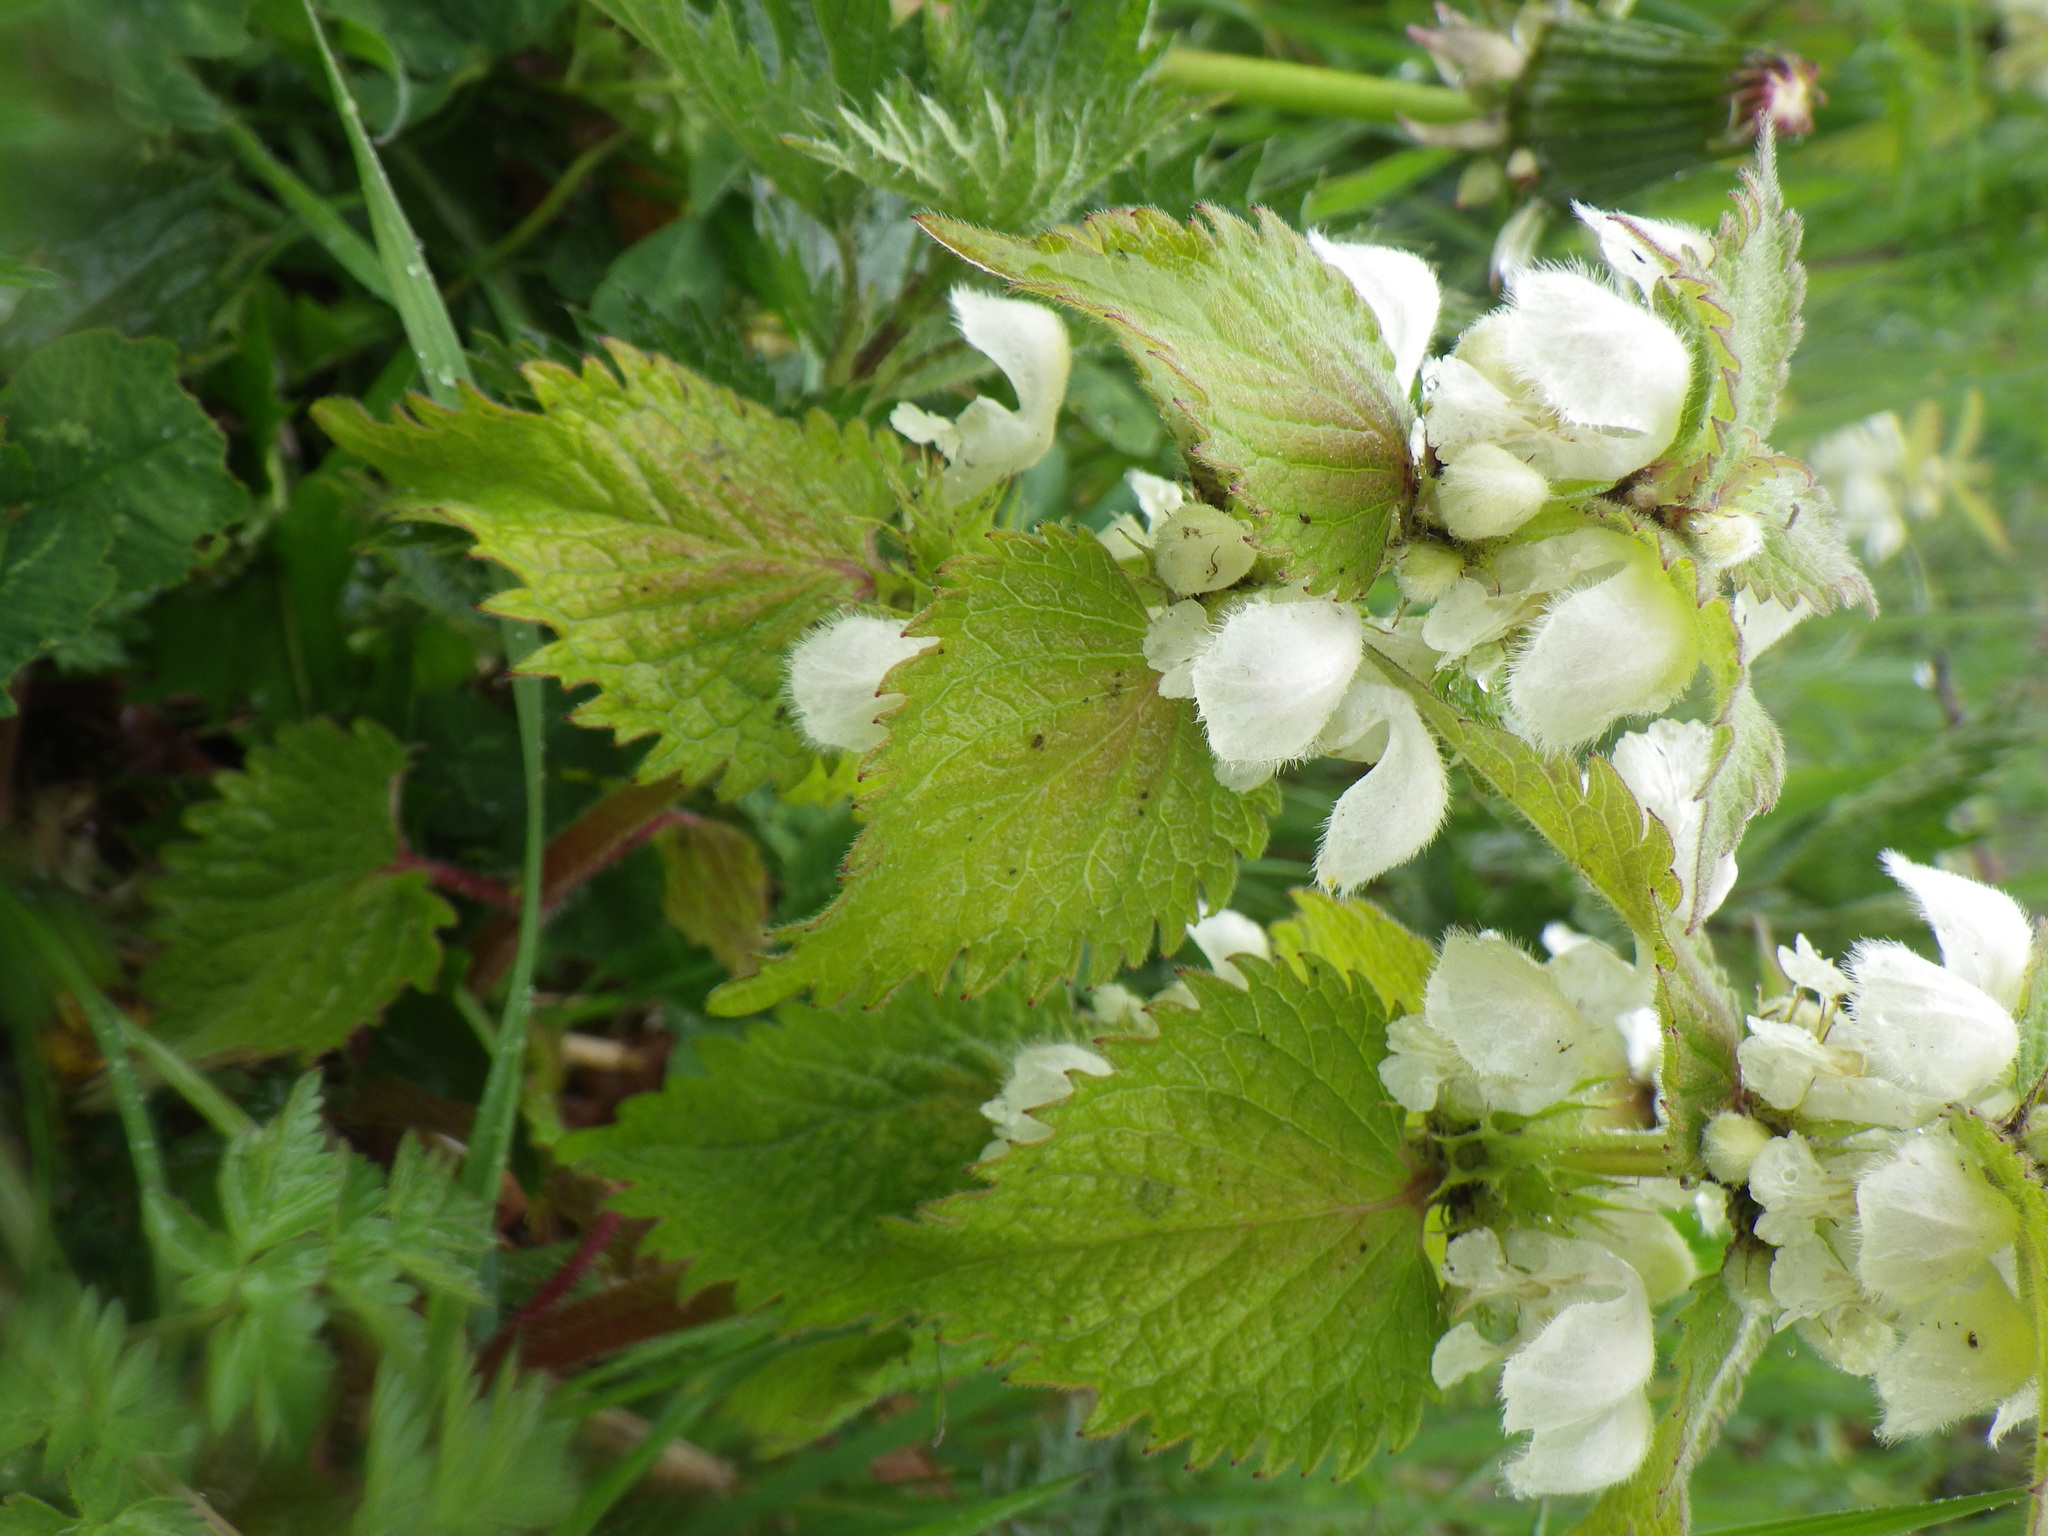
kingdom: Plantae
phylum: Tracheophyta
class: Magnoliopsida
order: Lamiales
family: Lamiaceae
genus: Lamium
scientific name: Lamium album
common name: White dead-nettle
